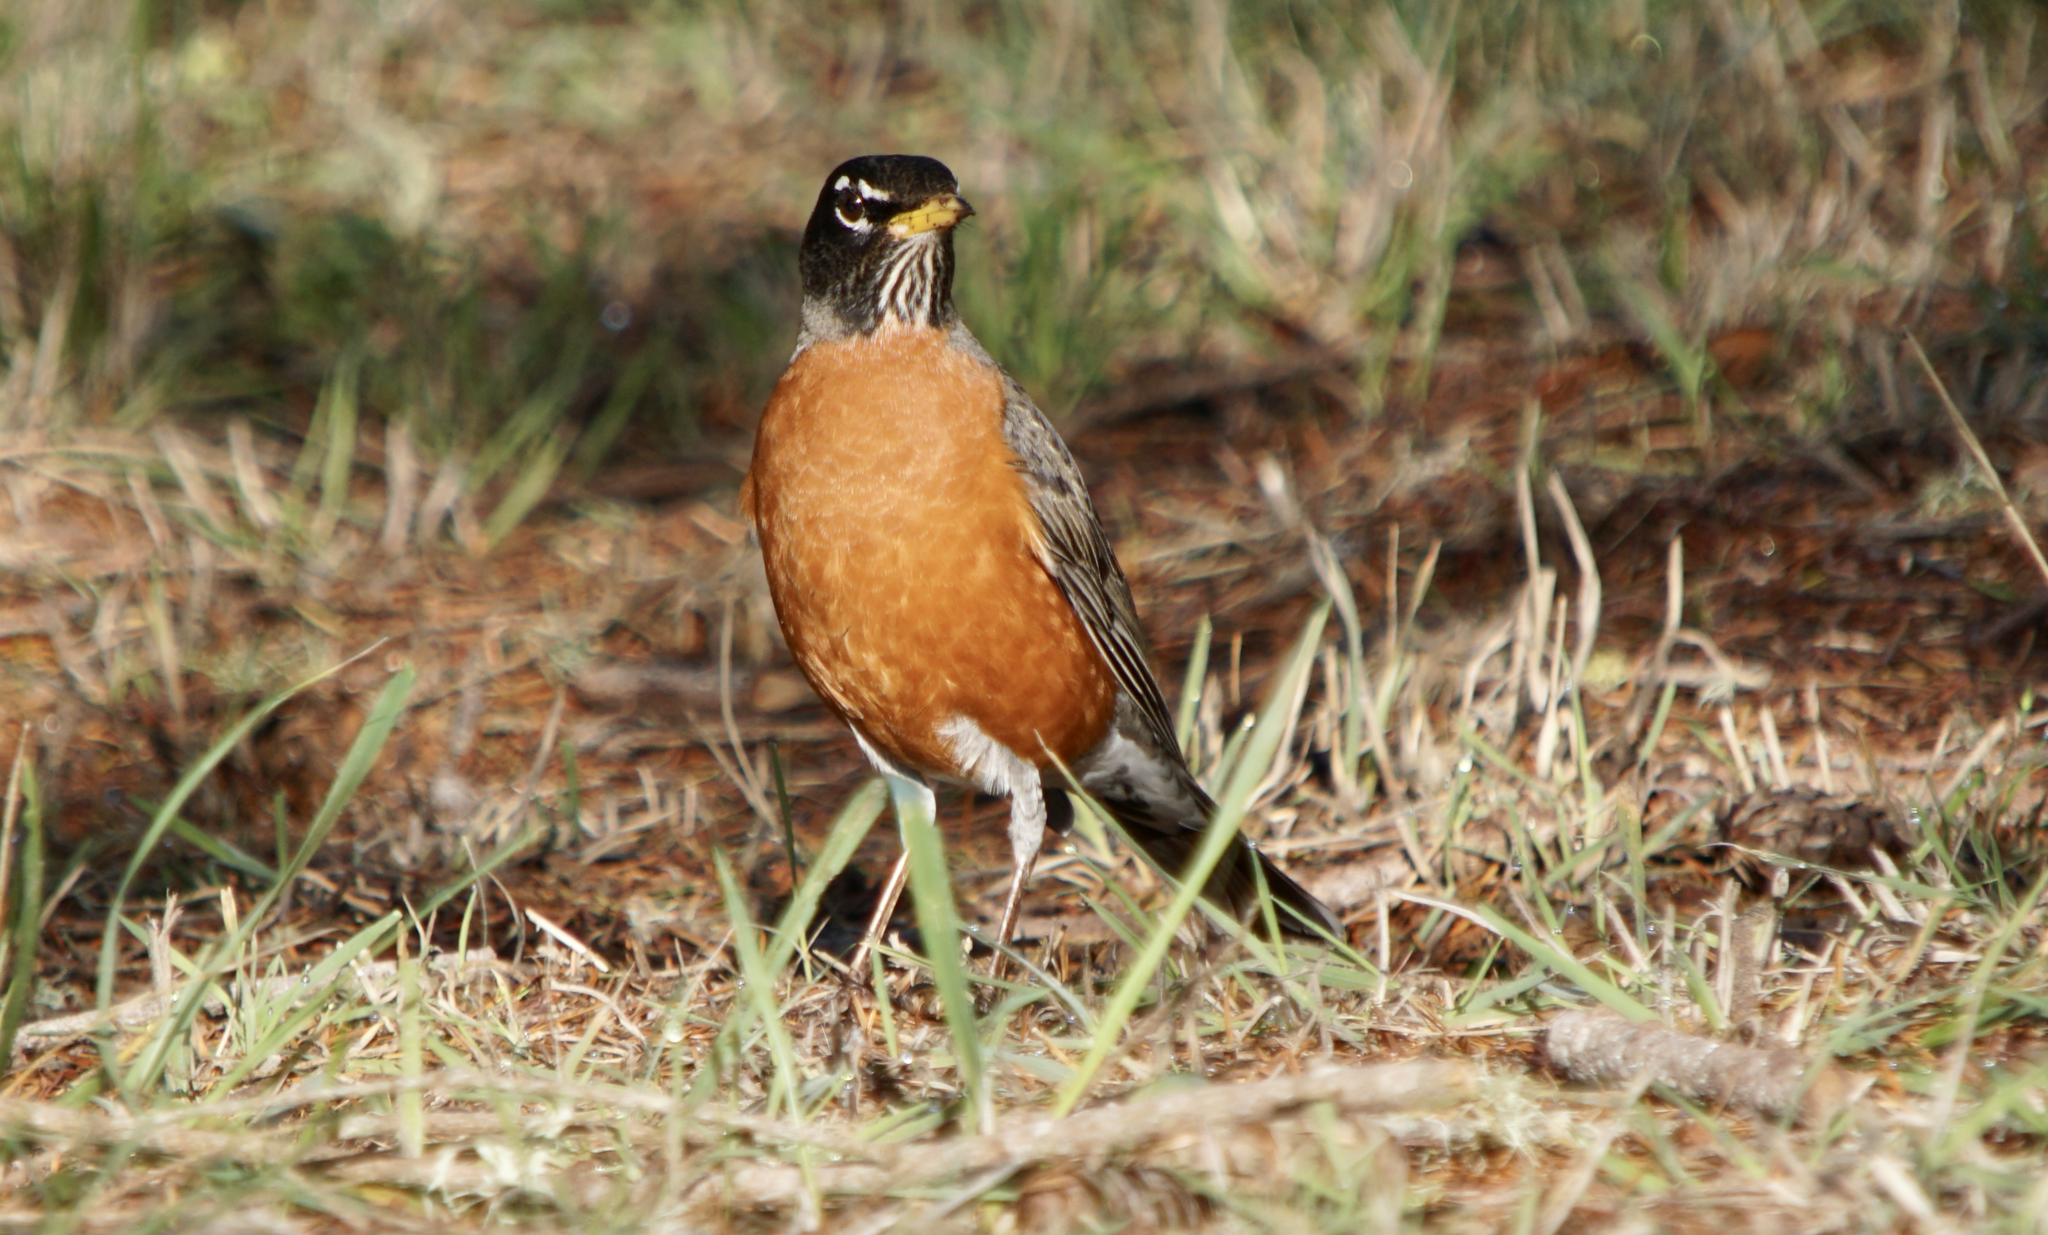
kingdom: Animalia
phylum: Chordata
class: Aves
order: Passeriformes
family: Turdidae
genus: Turdus
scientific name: Turdus migratorius
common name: American robin
